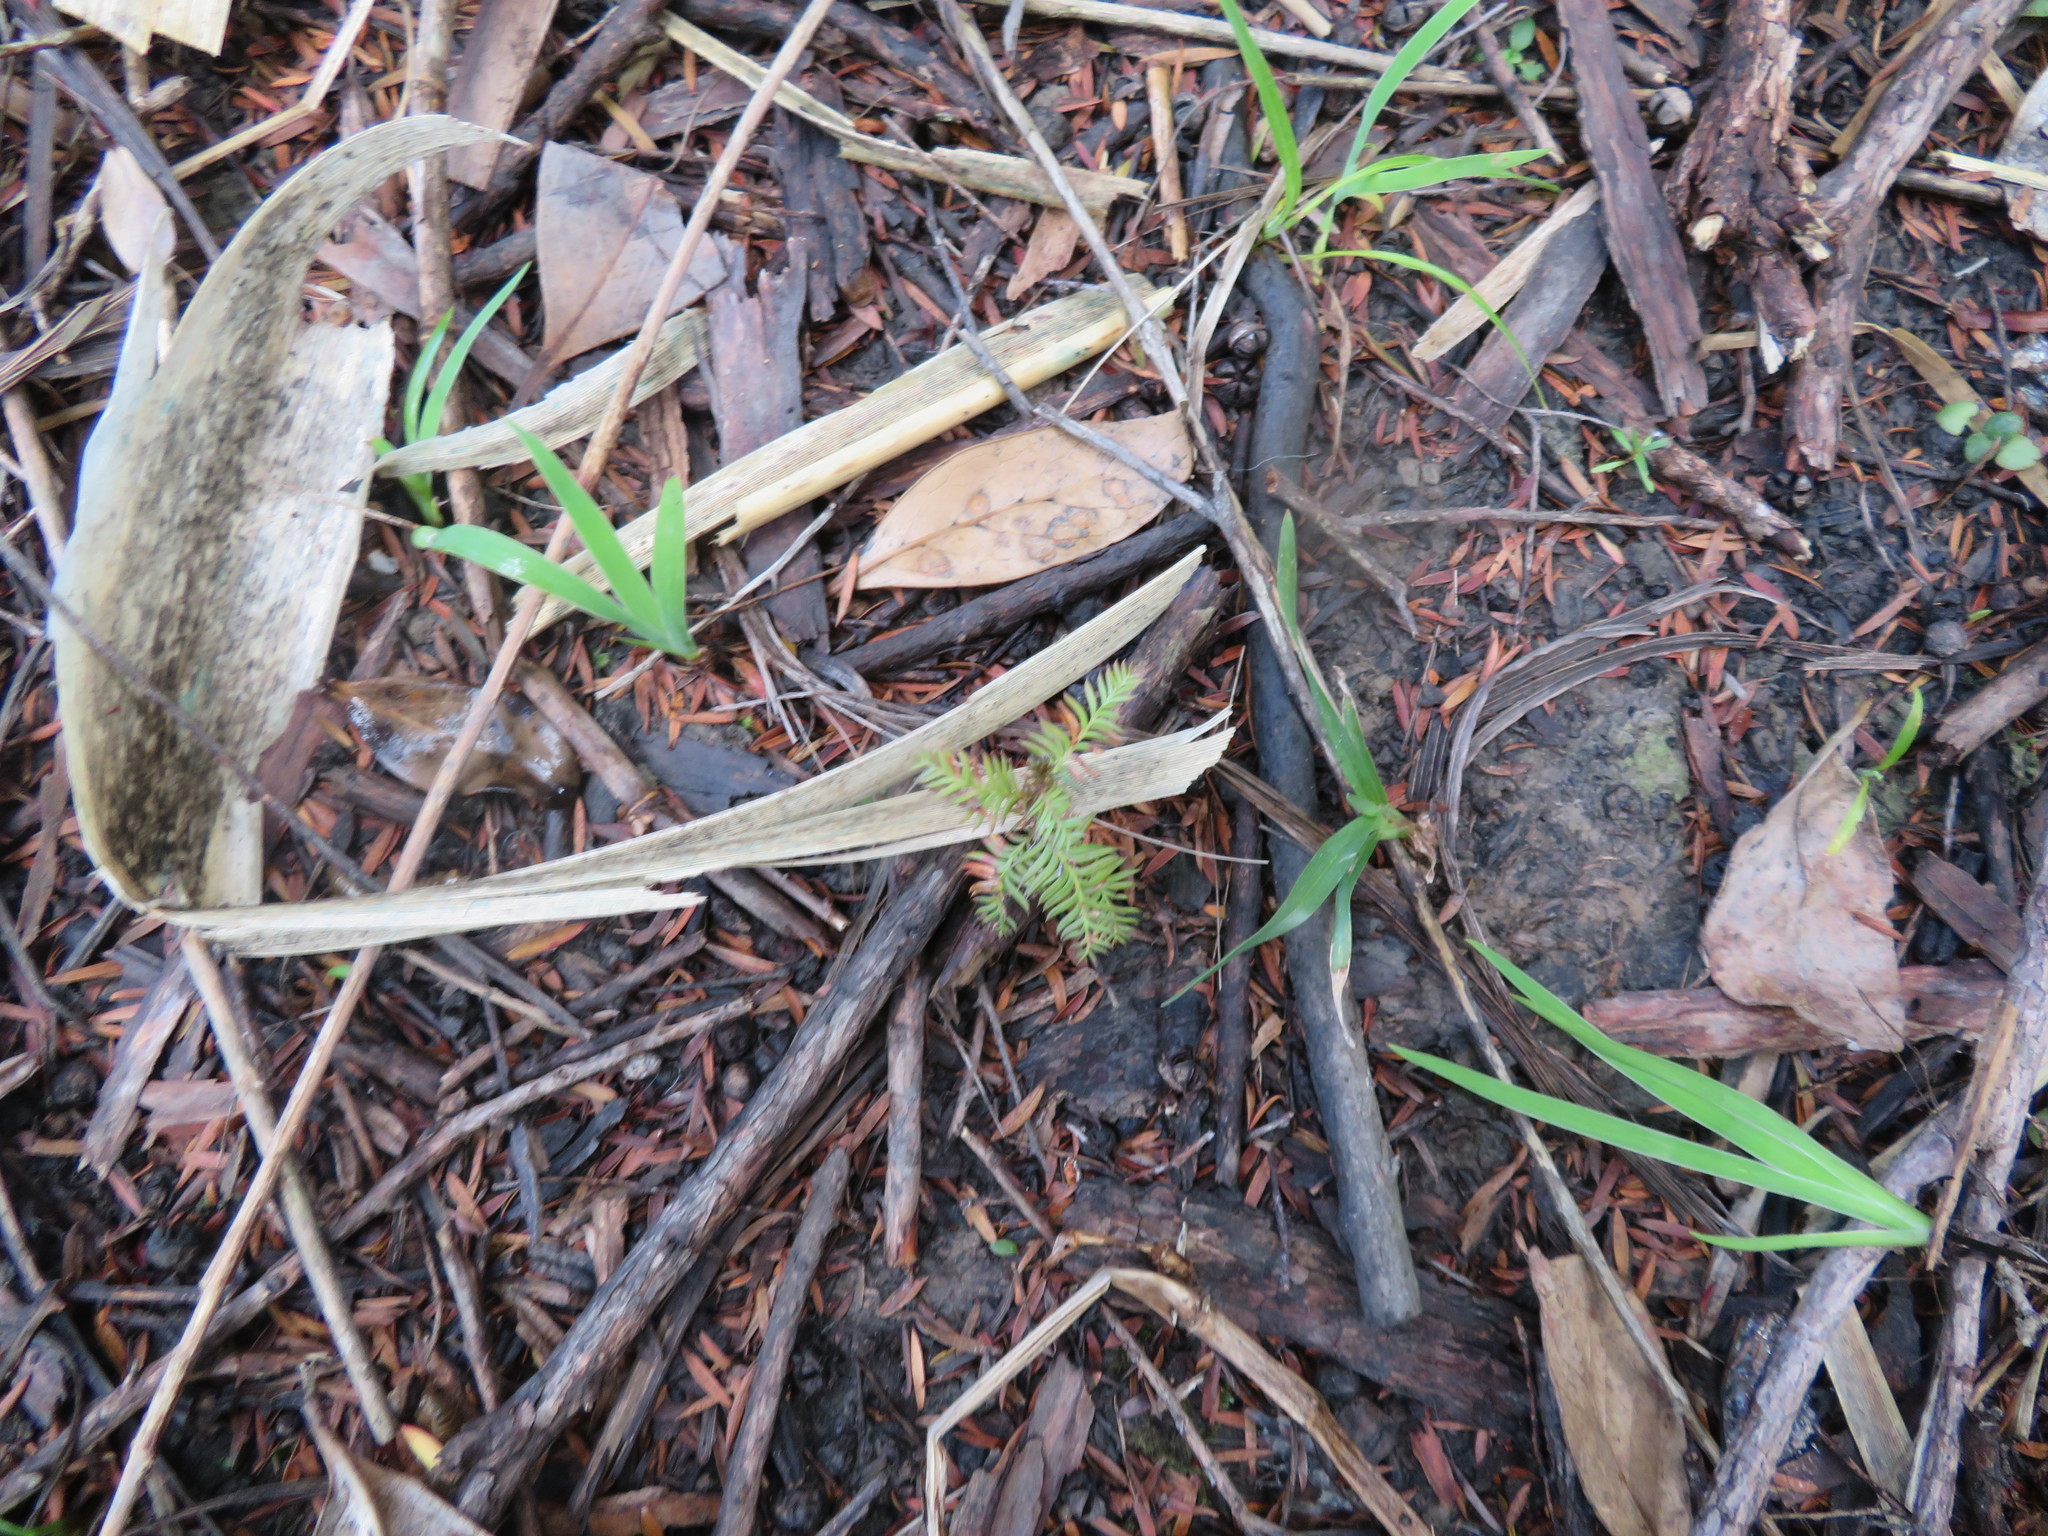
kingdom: Plantae
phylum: Tracheophyta
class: Pinopsida
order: Pinales
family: Podocarpaceae
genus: Dacrycarpus
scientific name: Dacrycarpus dacrydioides
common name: White pine
